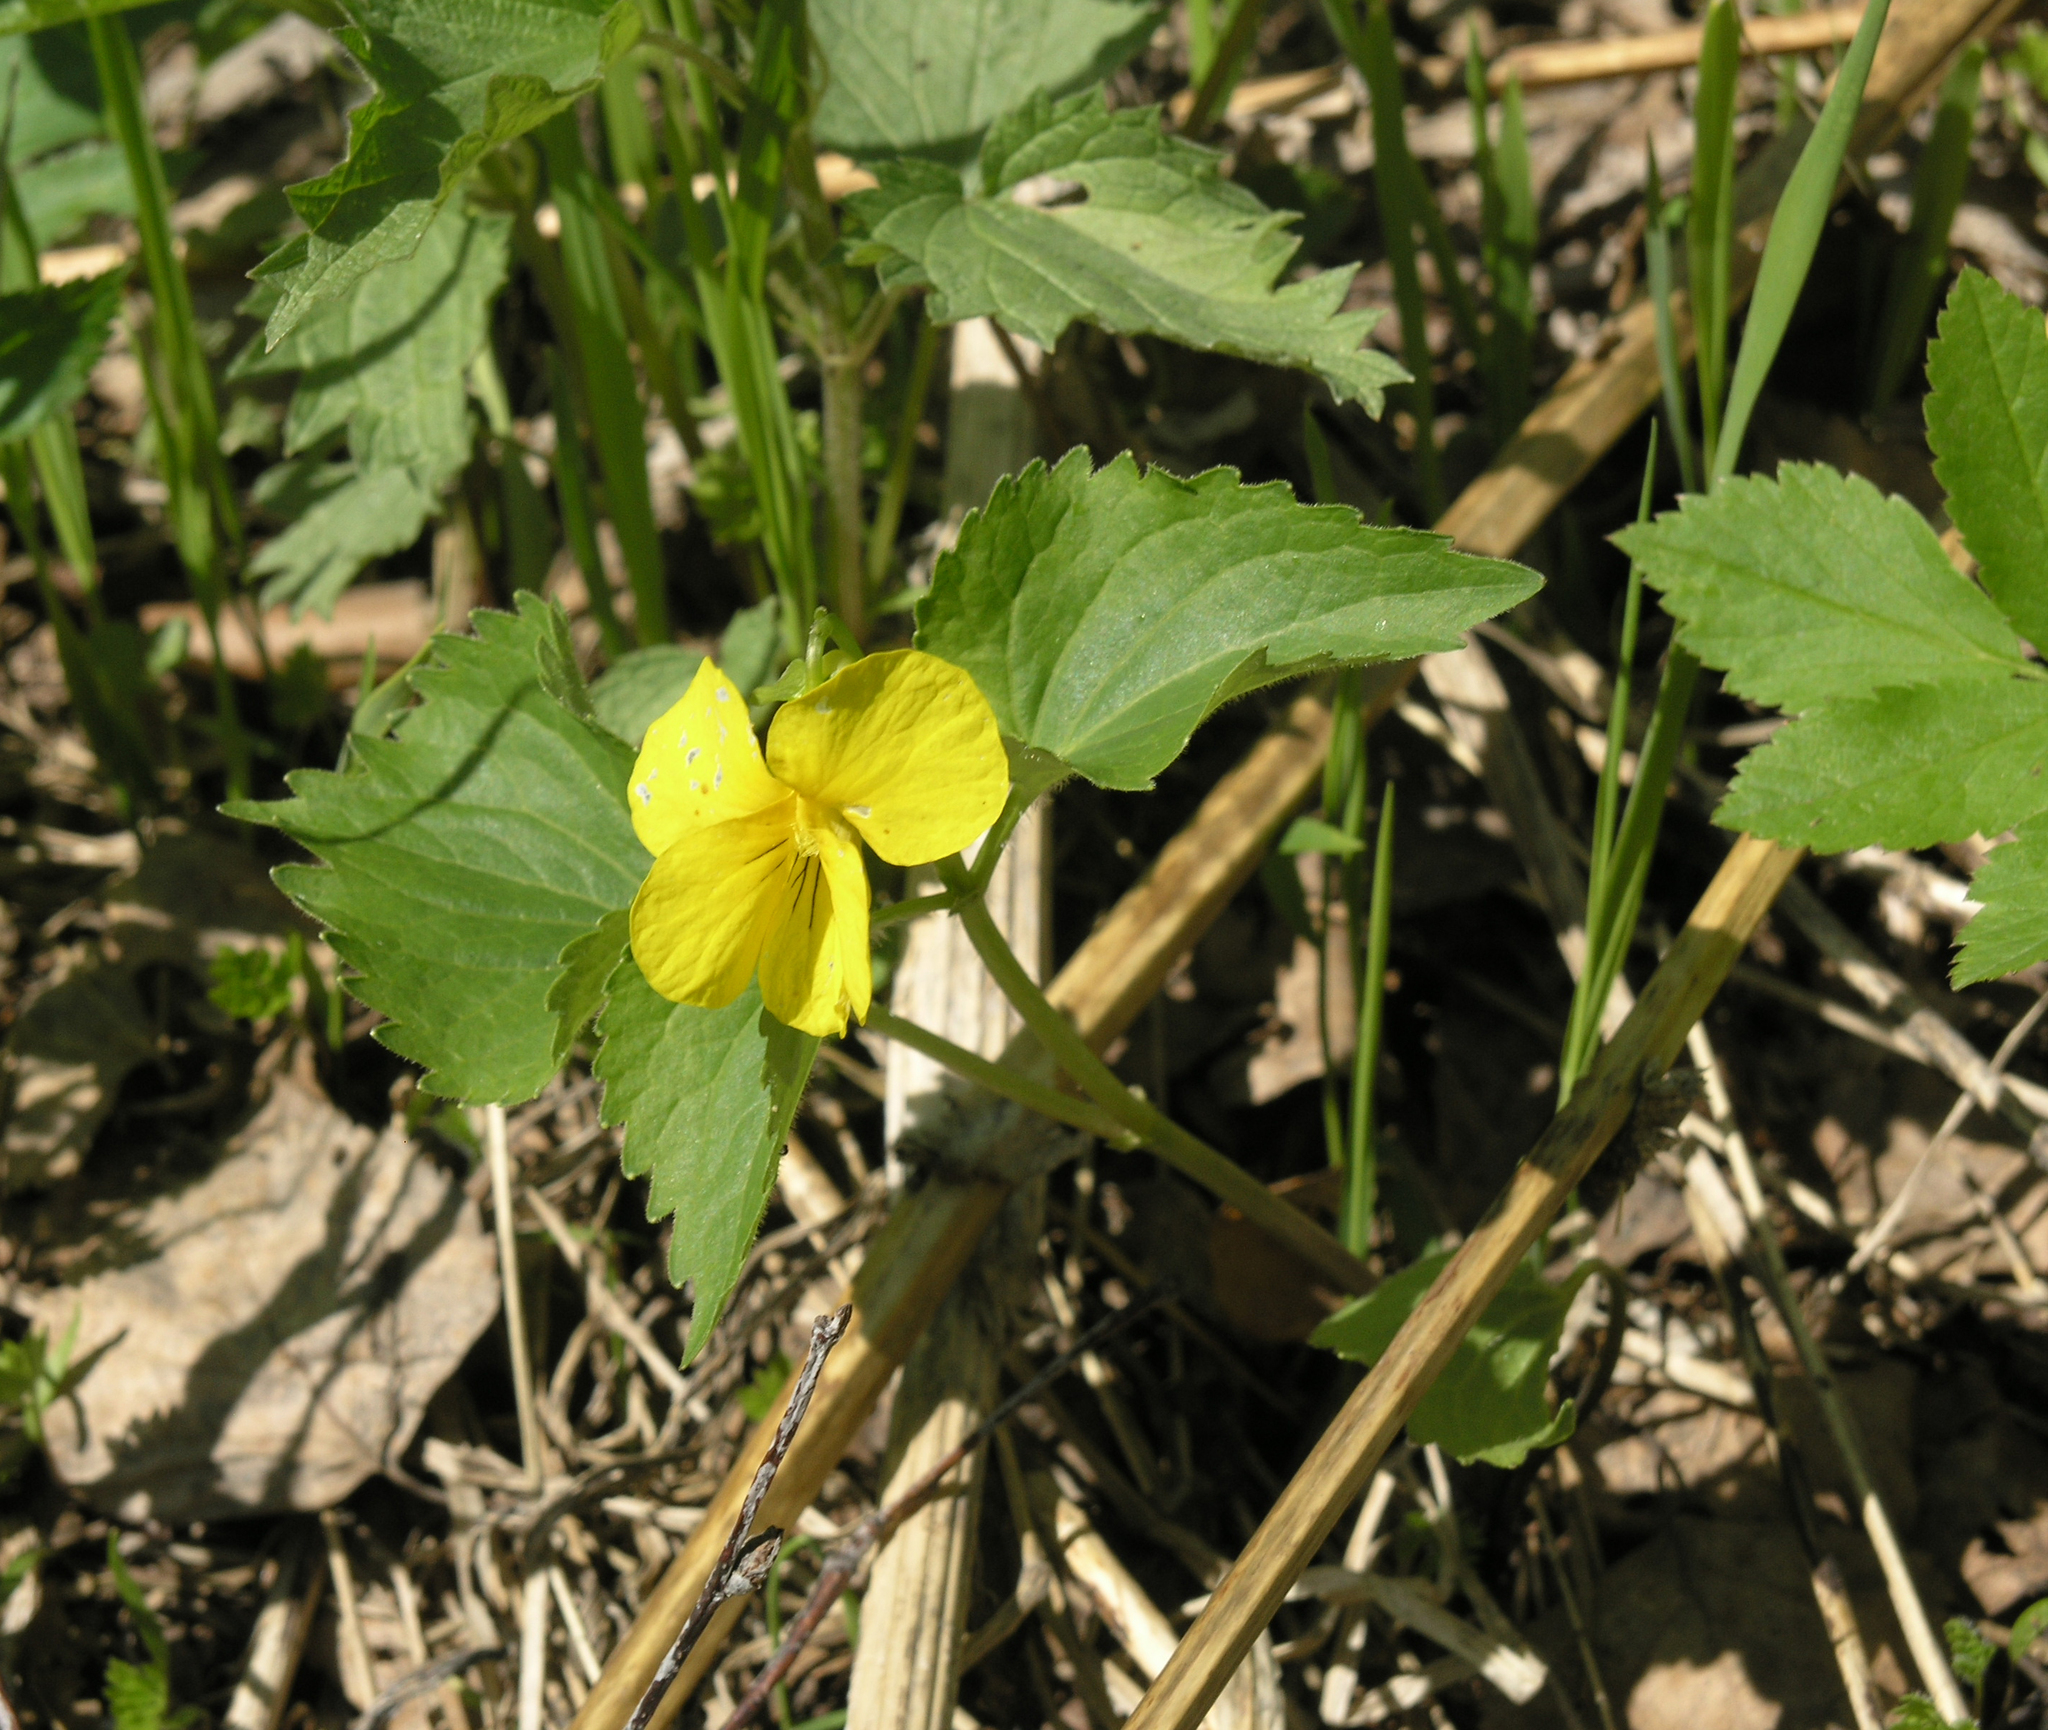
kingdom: Plantae
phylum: Tracheophyta
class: Magnoliopsida
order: Malpighiales
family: Violaceae
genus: Viola
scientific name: Viola uniflora
